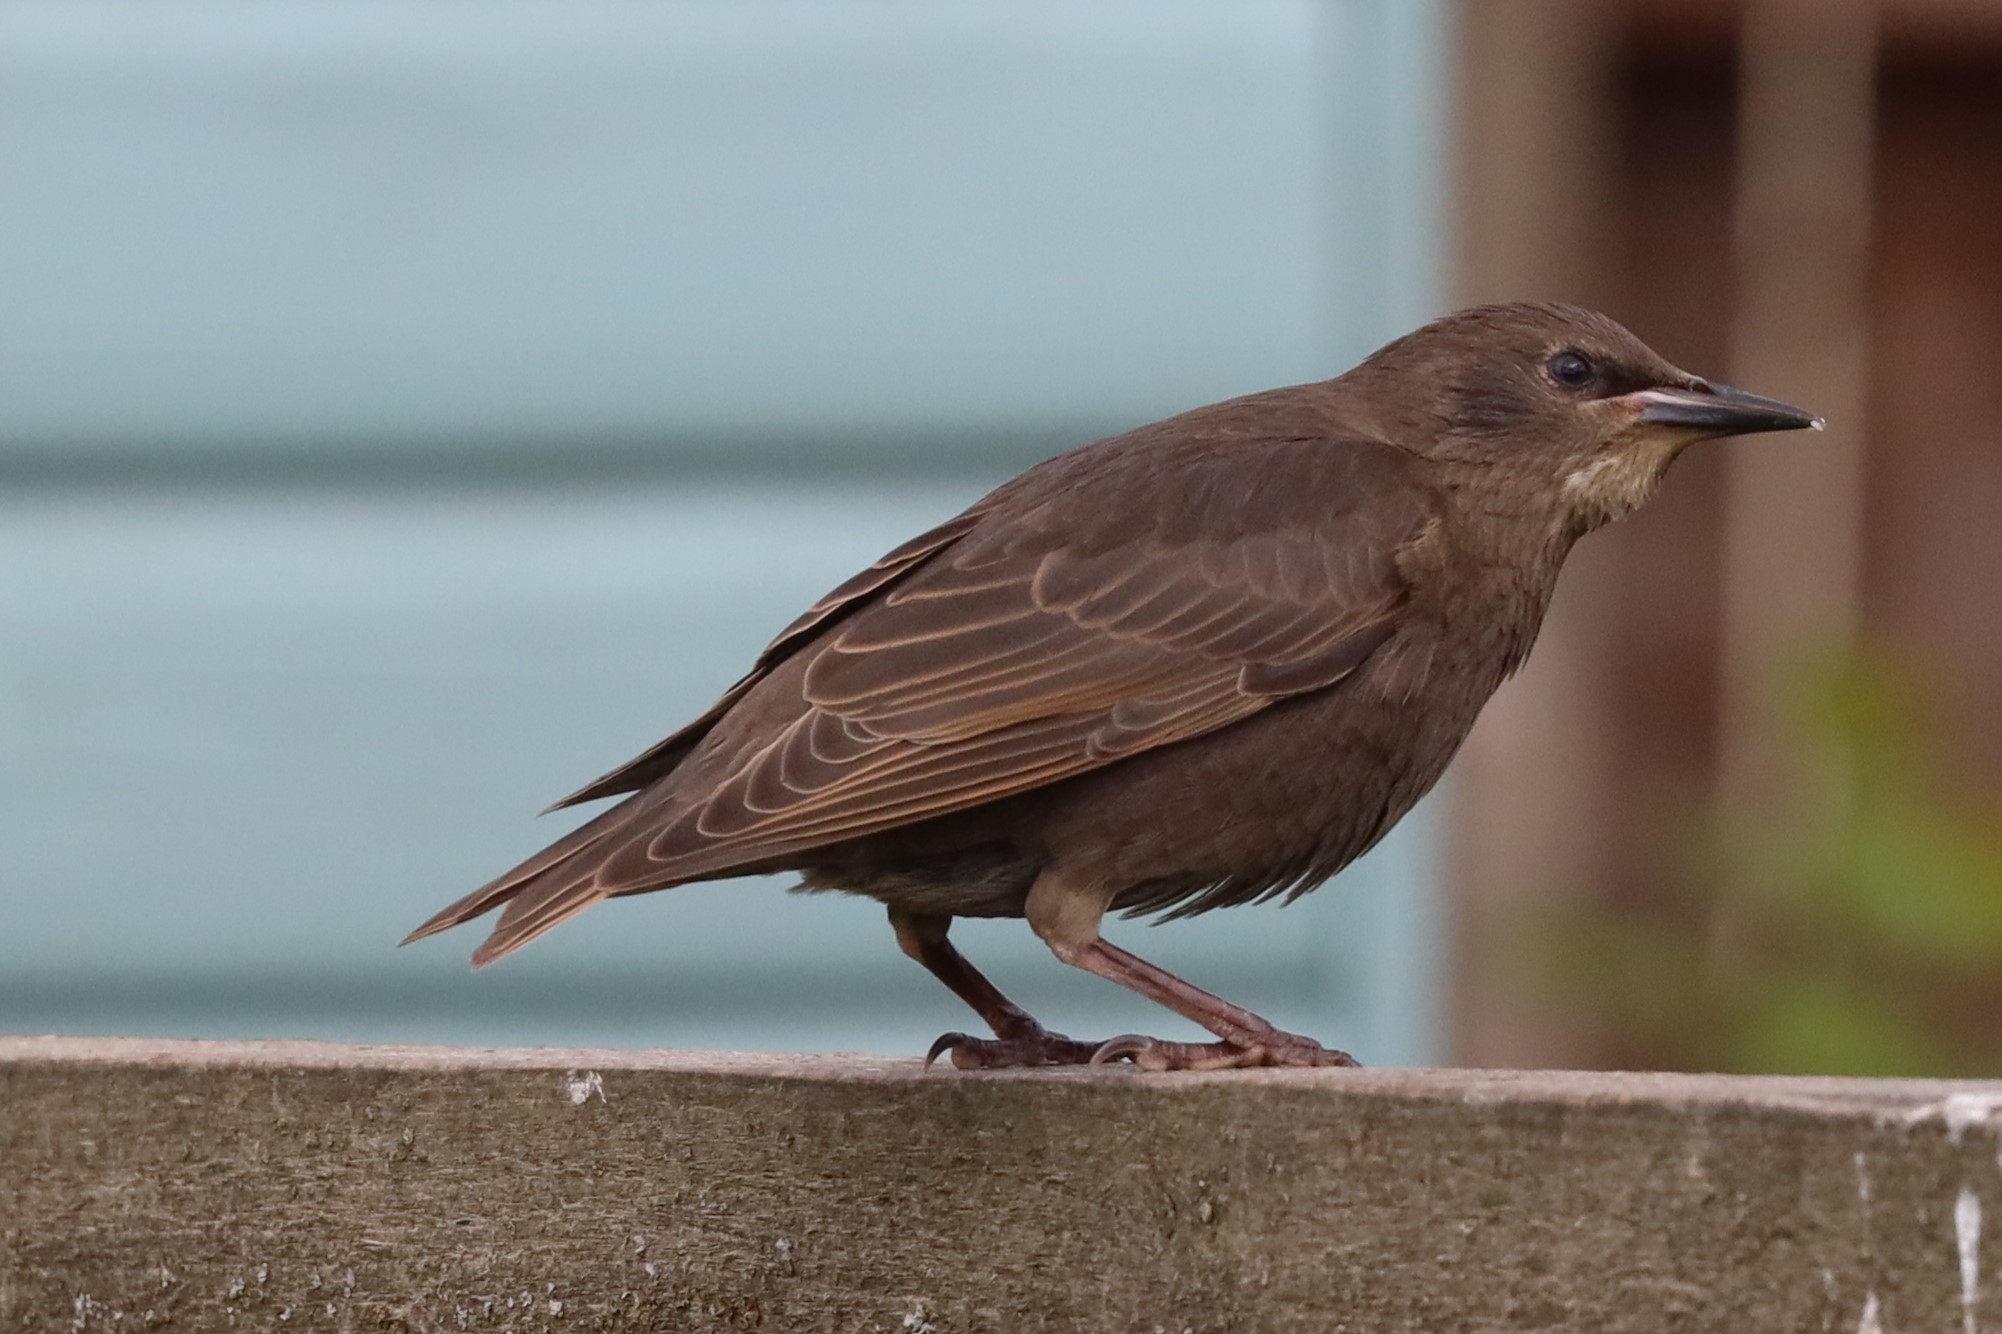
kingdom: Animalia
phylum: Chordata
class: Aves
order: Passeriformes
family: Sturnidae
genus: Sturnus
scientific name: Sturnus vulgaris
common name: Common starling
